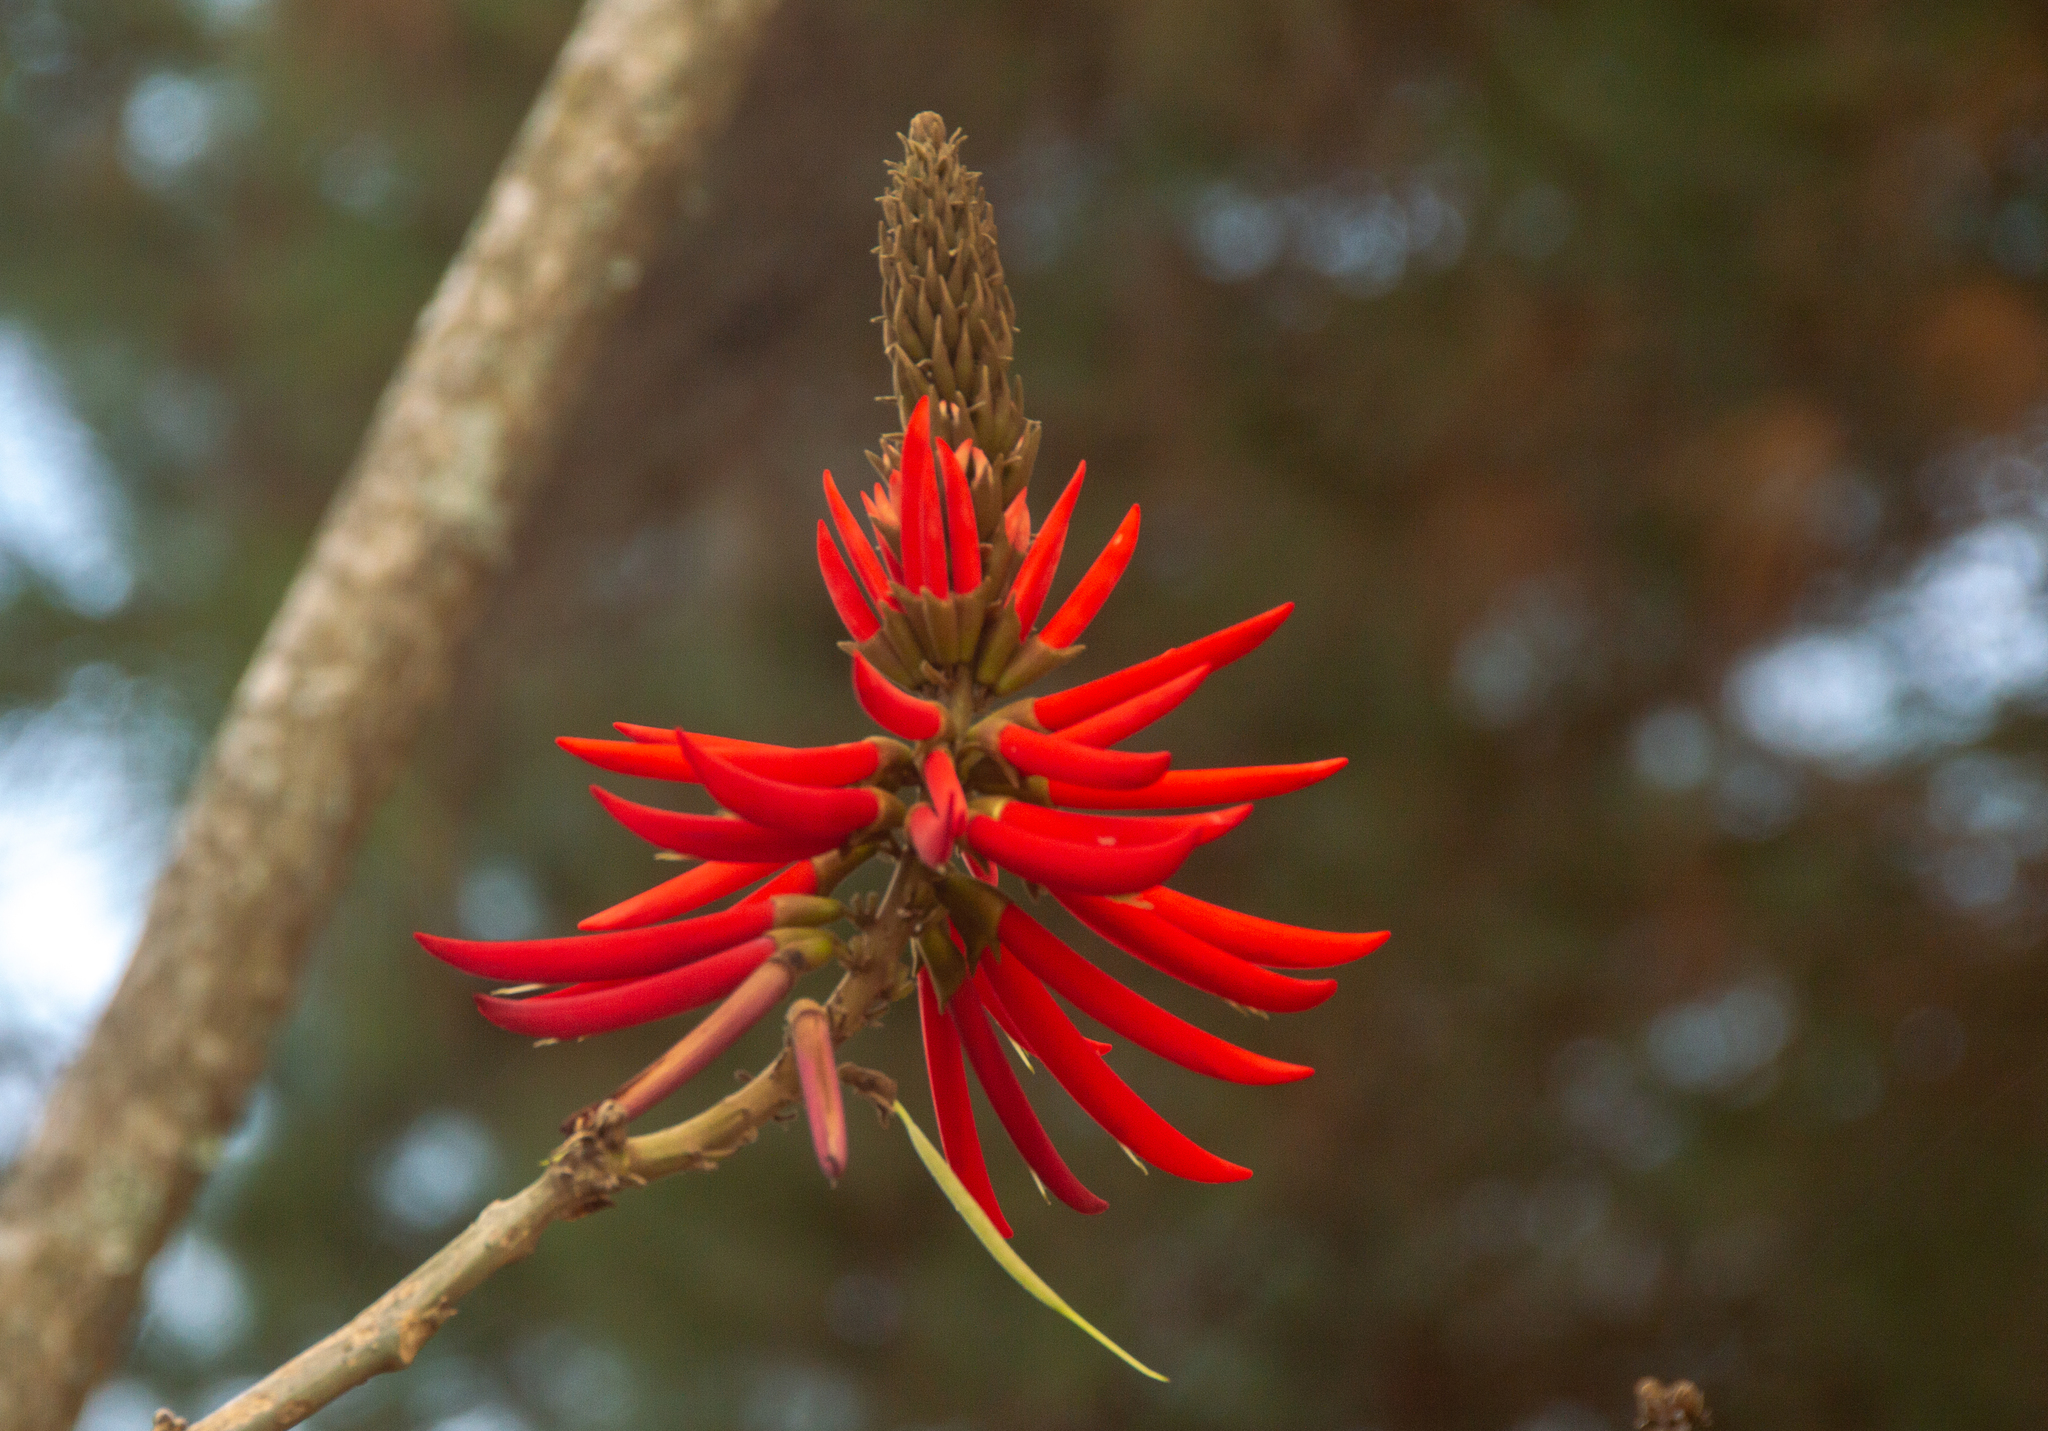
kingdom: Plantae
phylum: Tracheophyta
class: Magnoliopsida
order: Fabales
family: Fabaceae
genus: Erythrina
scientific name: Erythrina speciosa
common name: Coral tree
